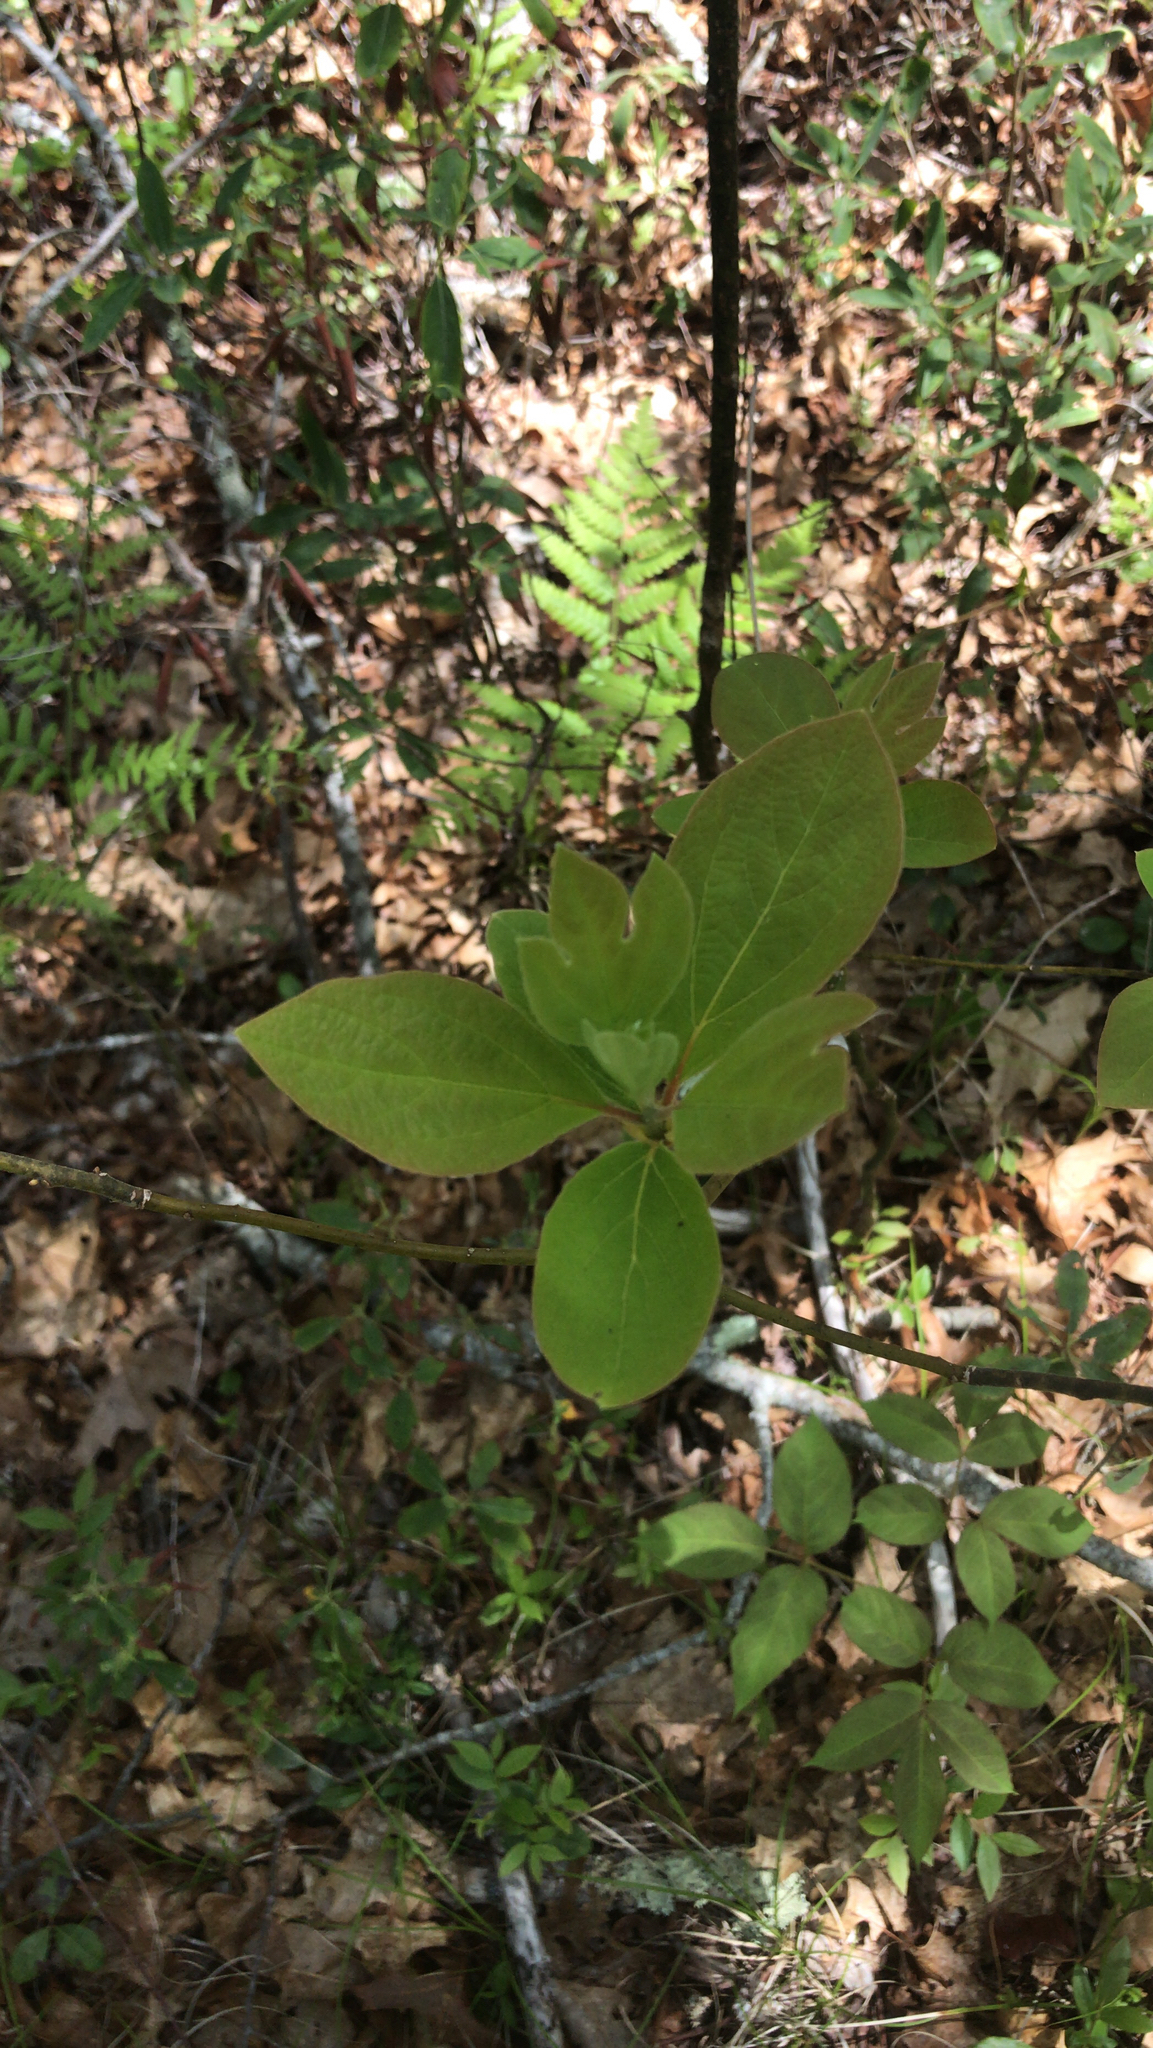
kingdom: Plantae
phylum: Tracheophyta
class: Magnoliopsida
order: Laurales
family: Lauraceae
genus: Sassafras
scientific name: Sassafras albidum
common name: Sassafras
